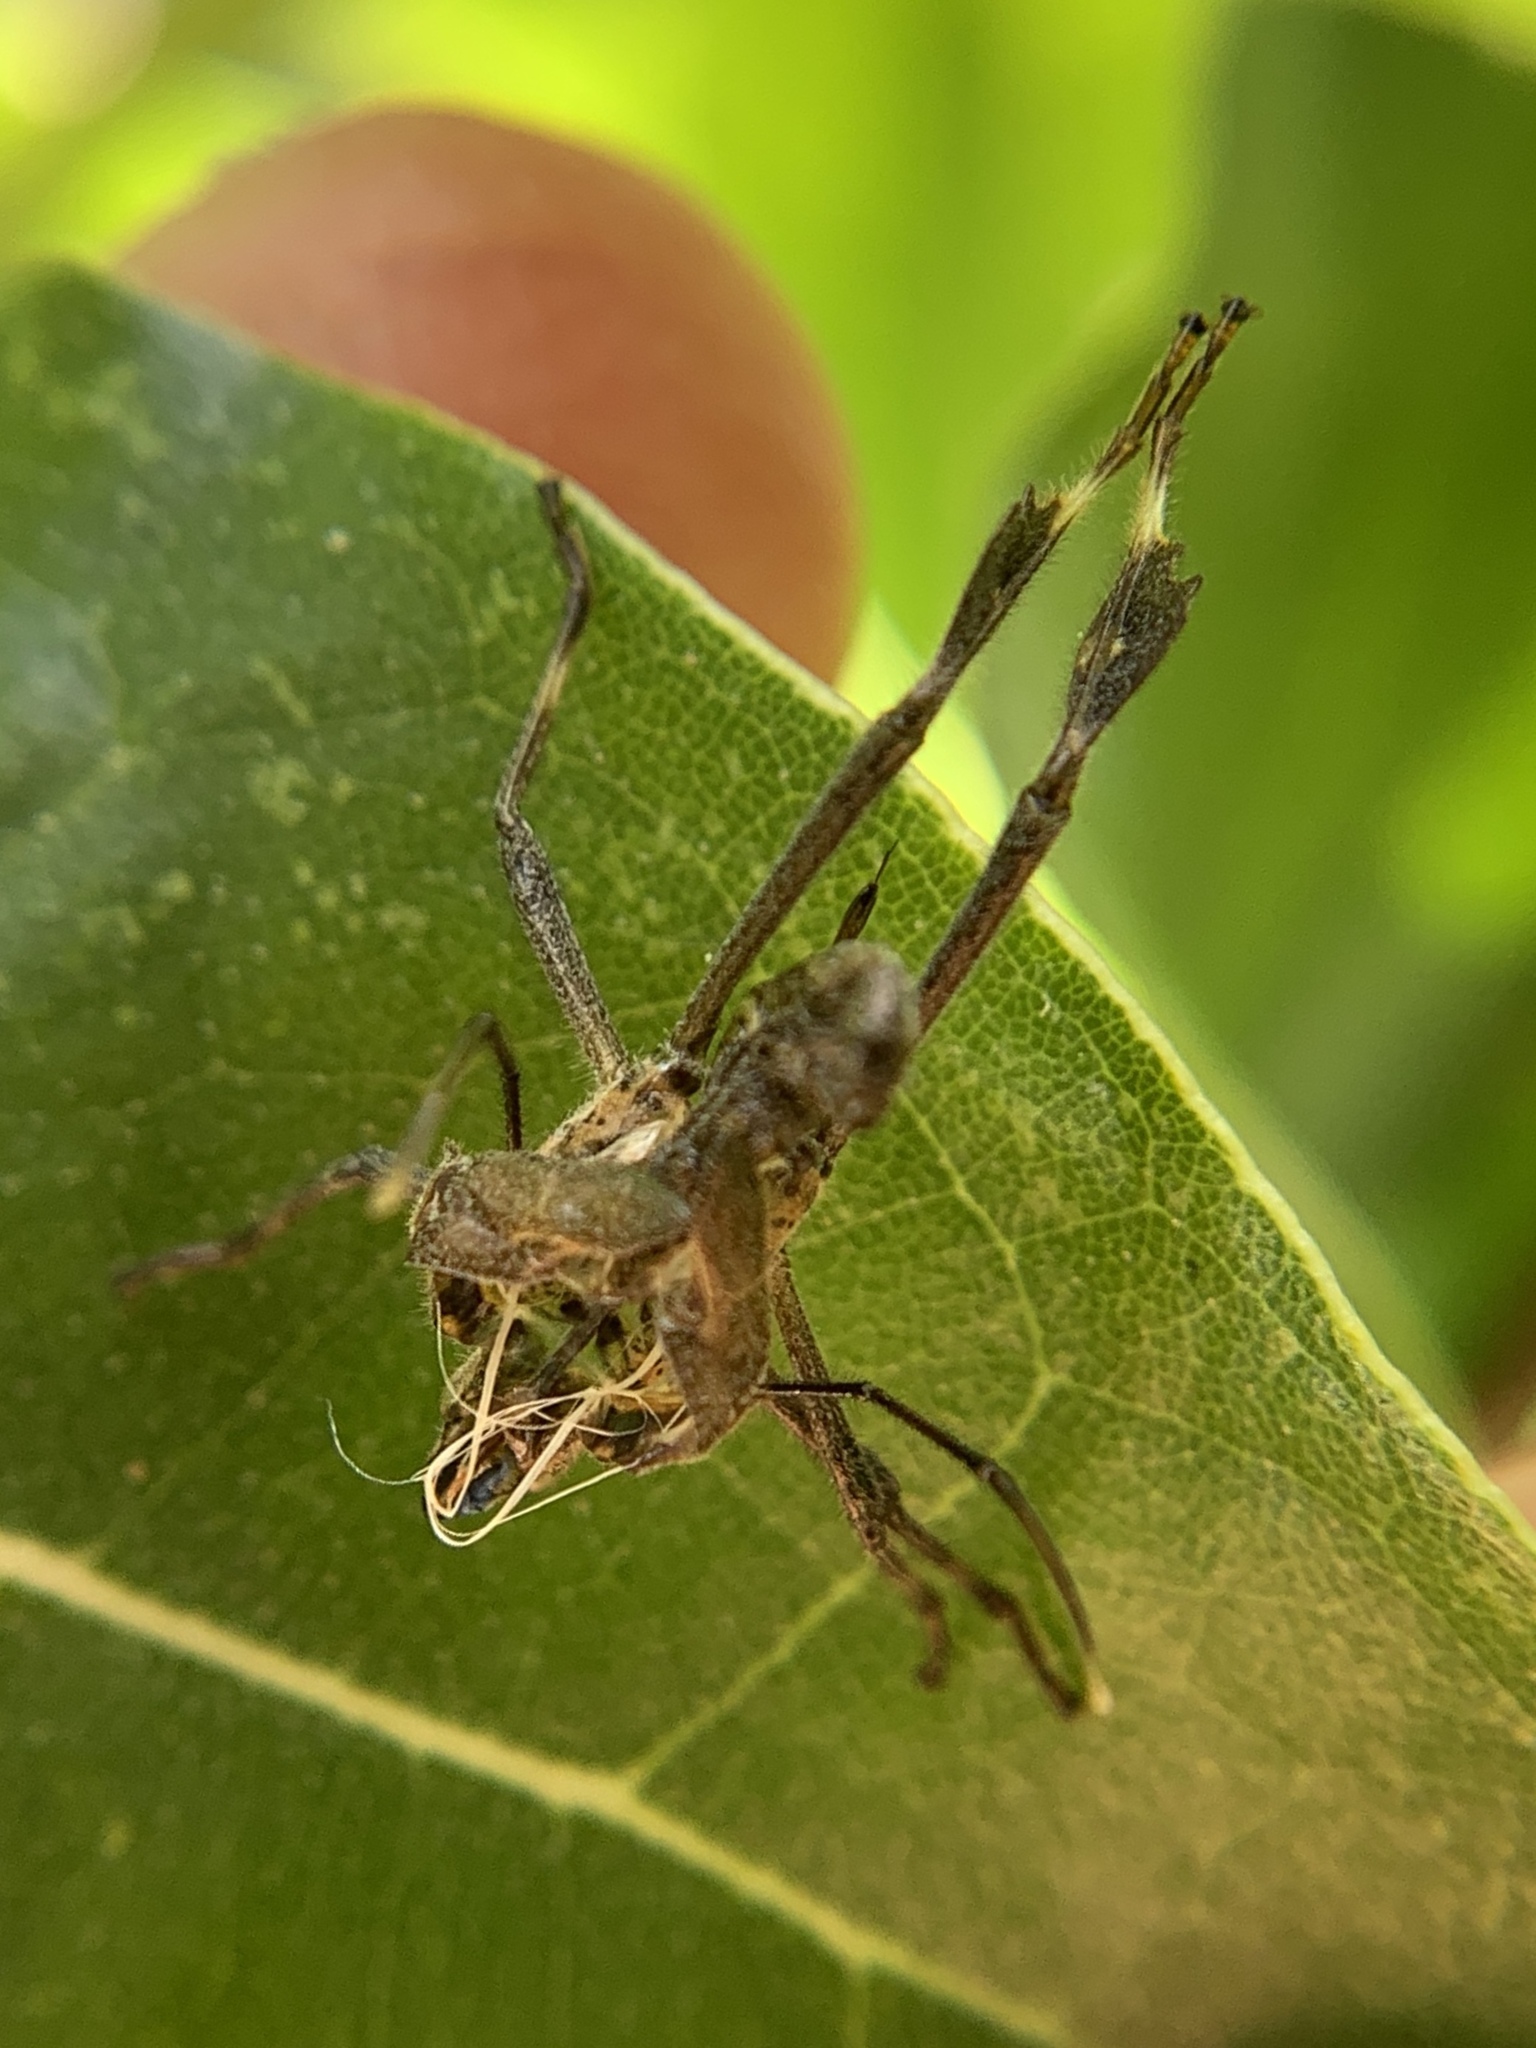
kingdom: Animalia
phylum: Arthropoda
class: Insecta
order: Hemiptera
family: Coreidae
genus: Leptoglossus
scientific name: Leptoglossus phyllopus
